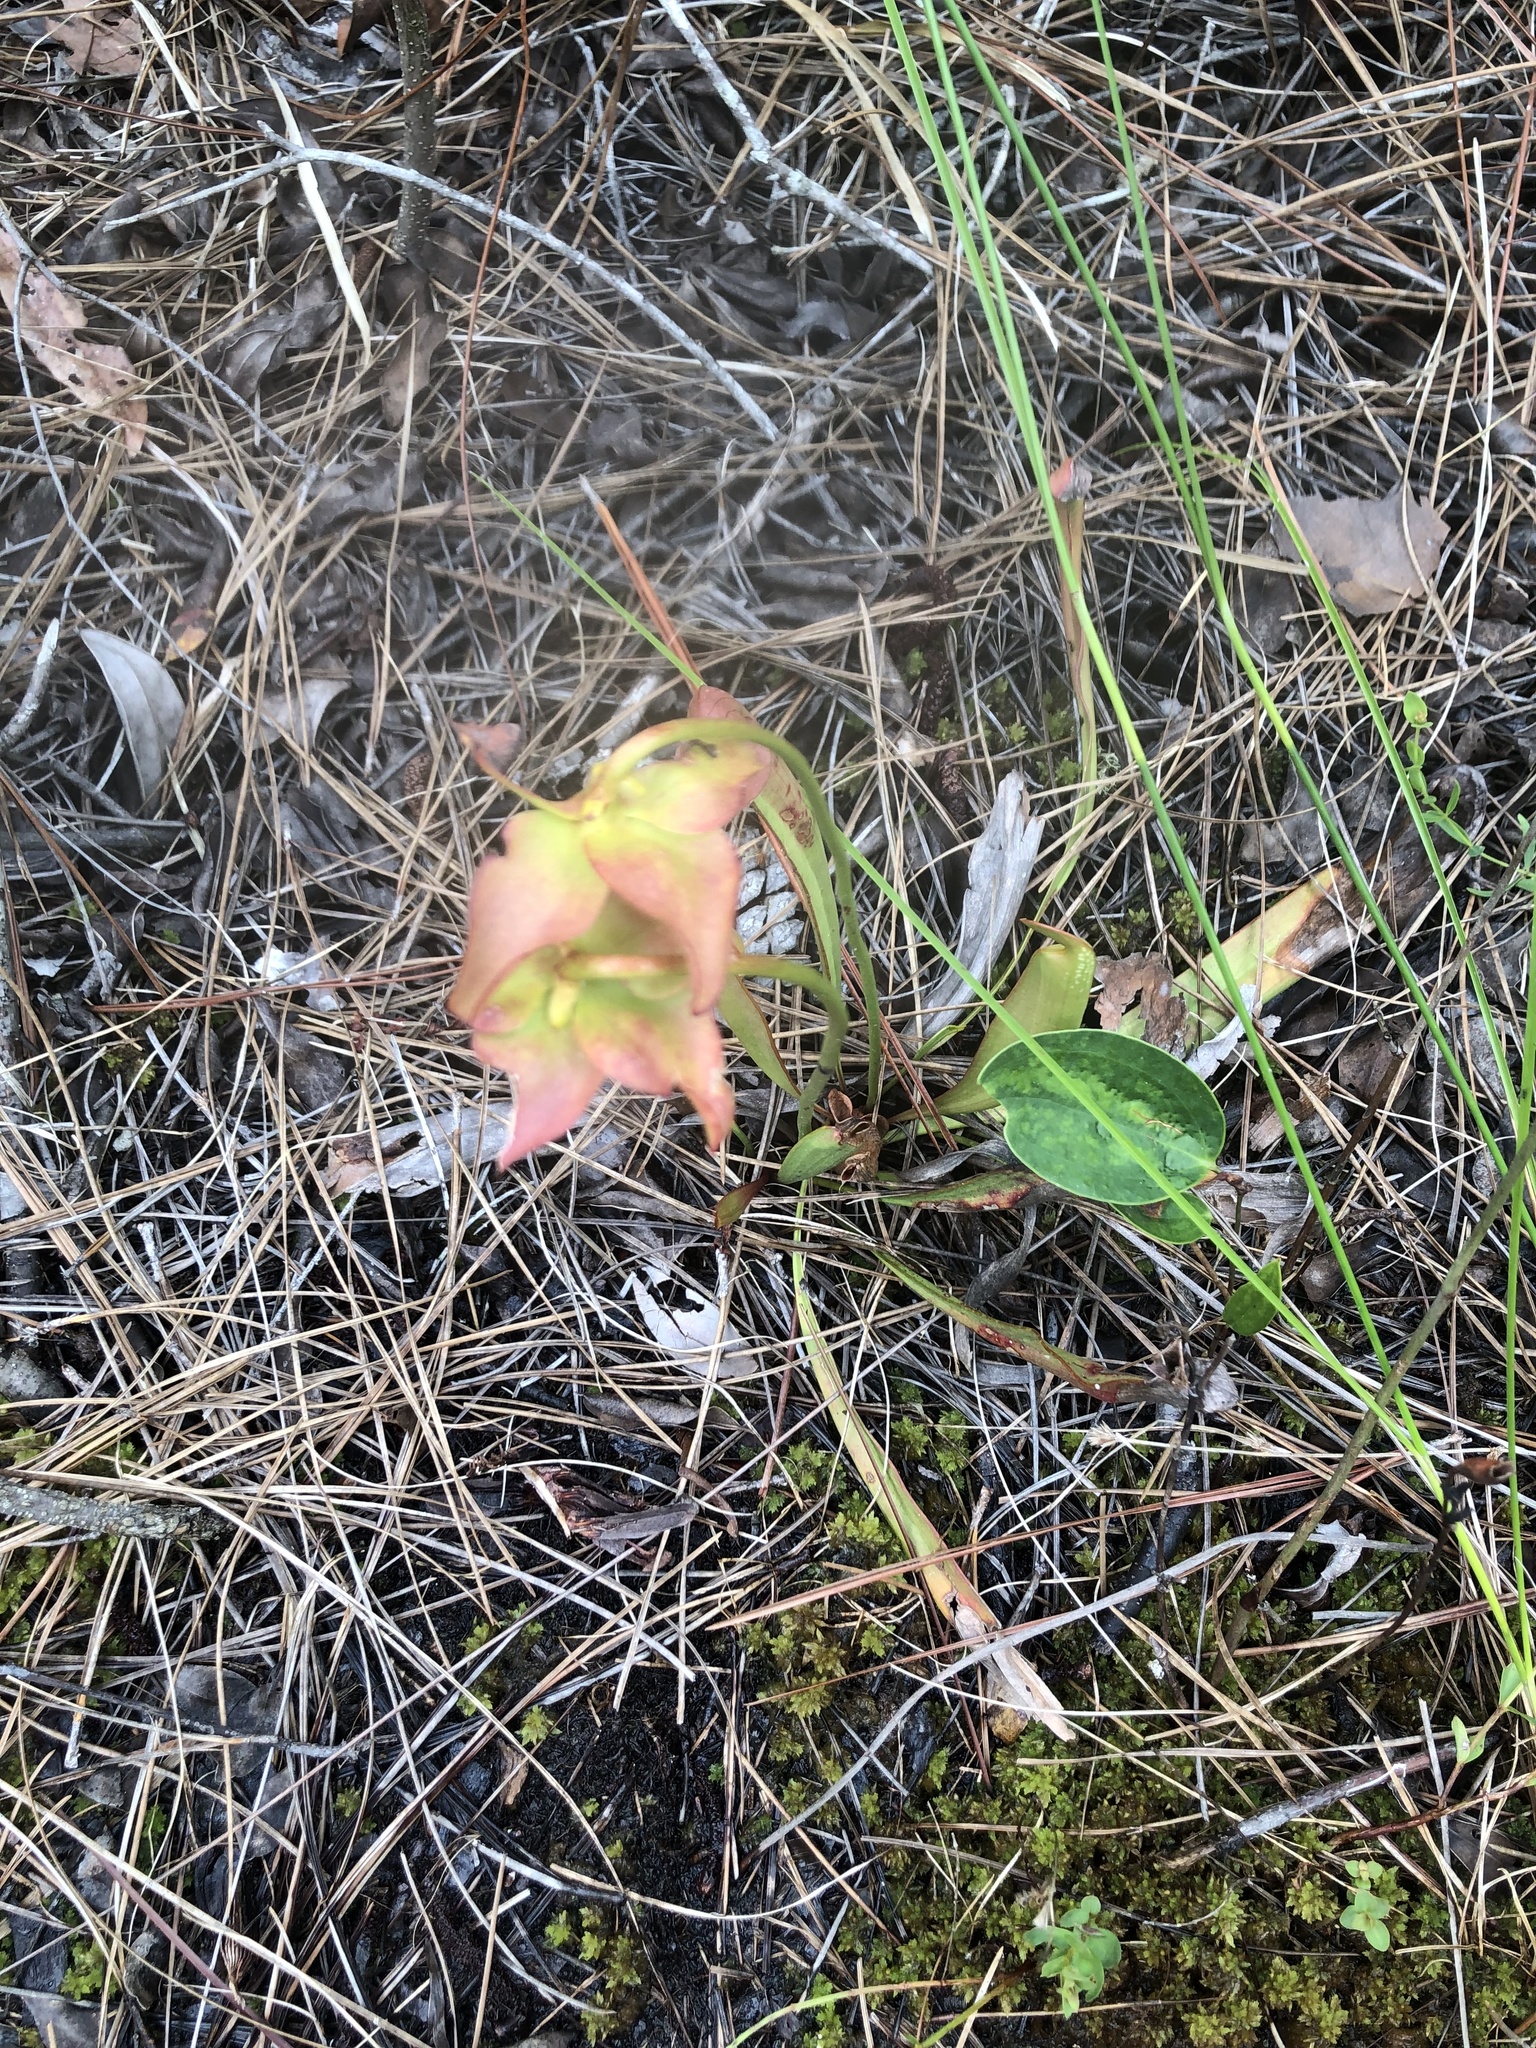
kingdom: Plantae
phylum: Tracheophyta
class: Magnoliopsida
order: Ericales
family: Sarraceniaceae
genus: Sarracenia
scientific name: Sarracenia minor
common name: Rainhat-trumpet
